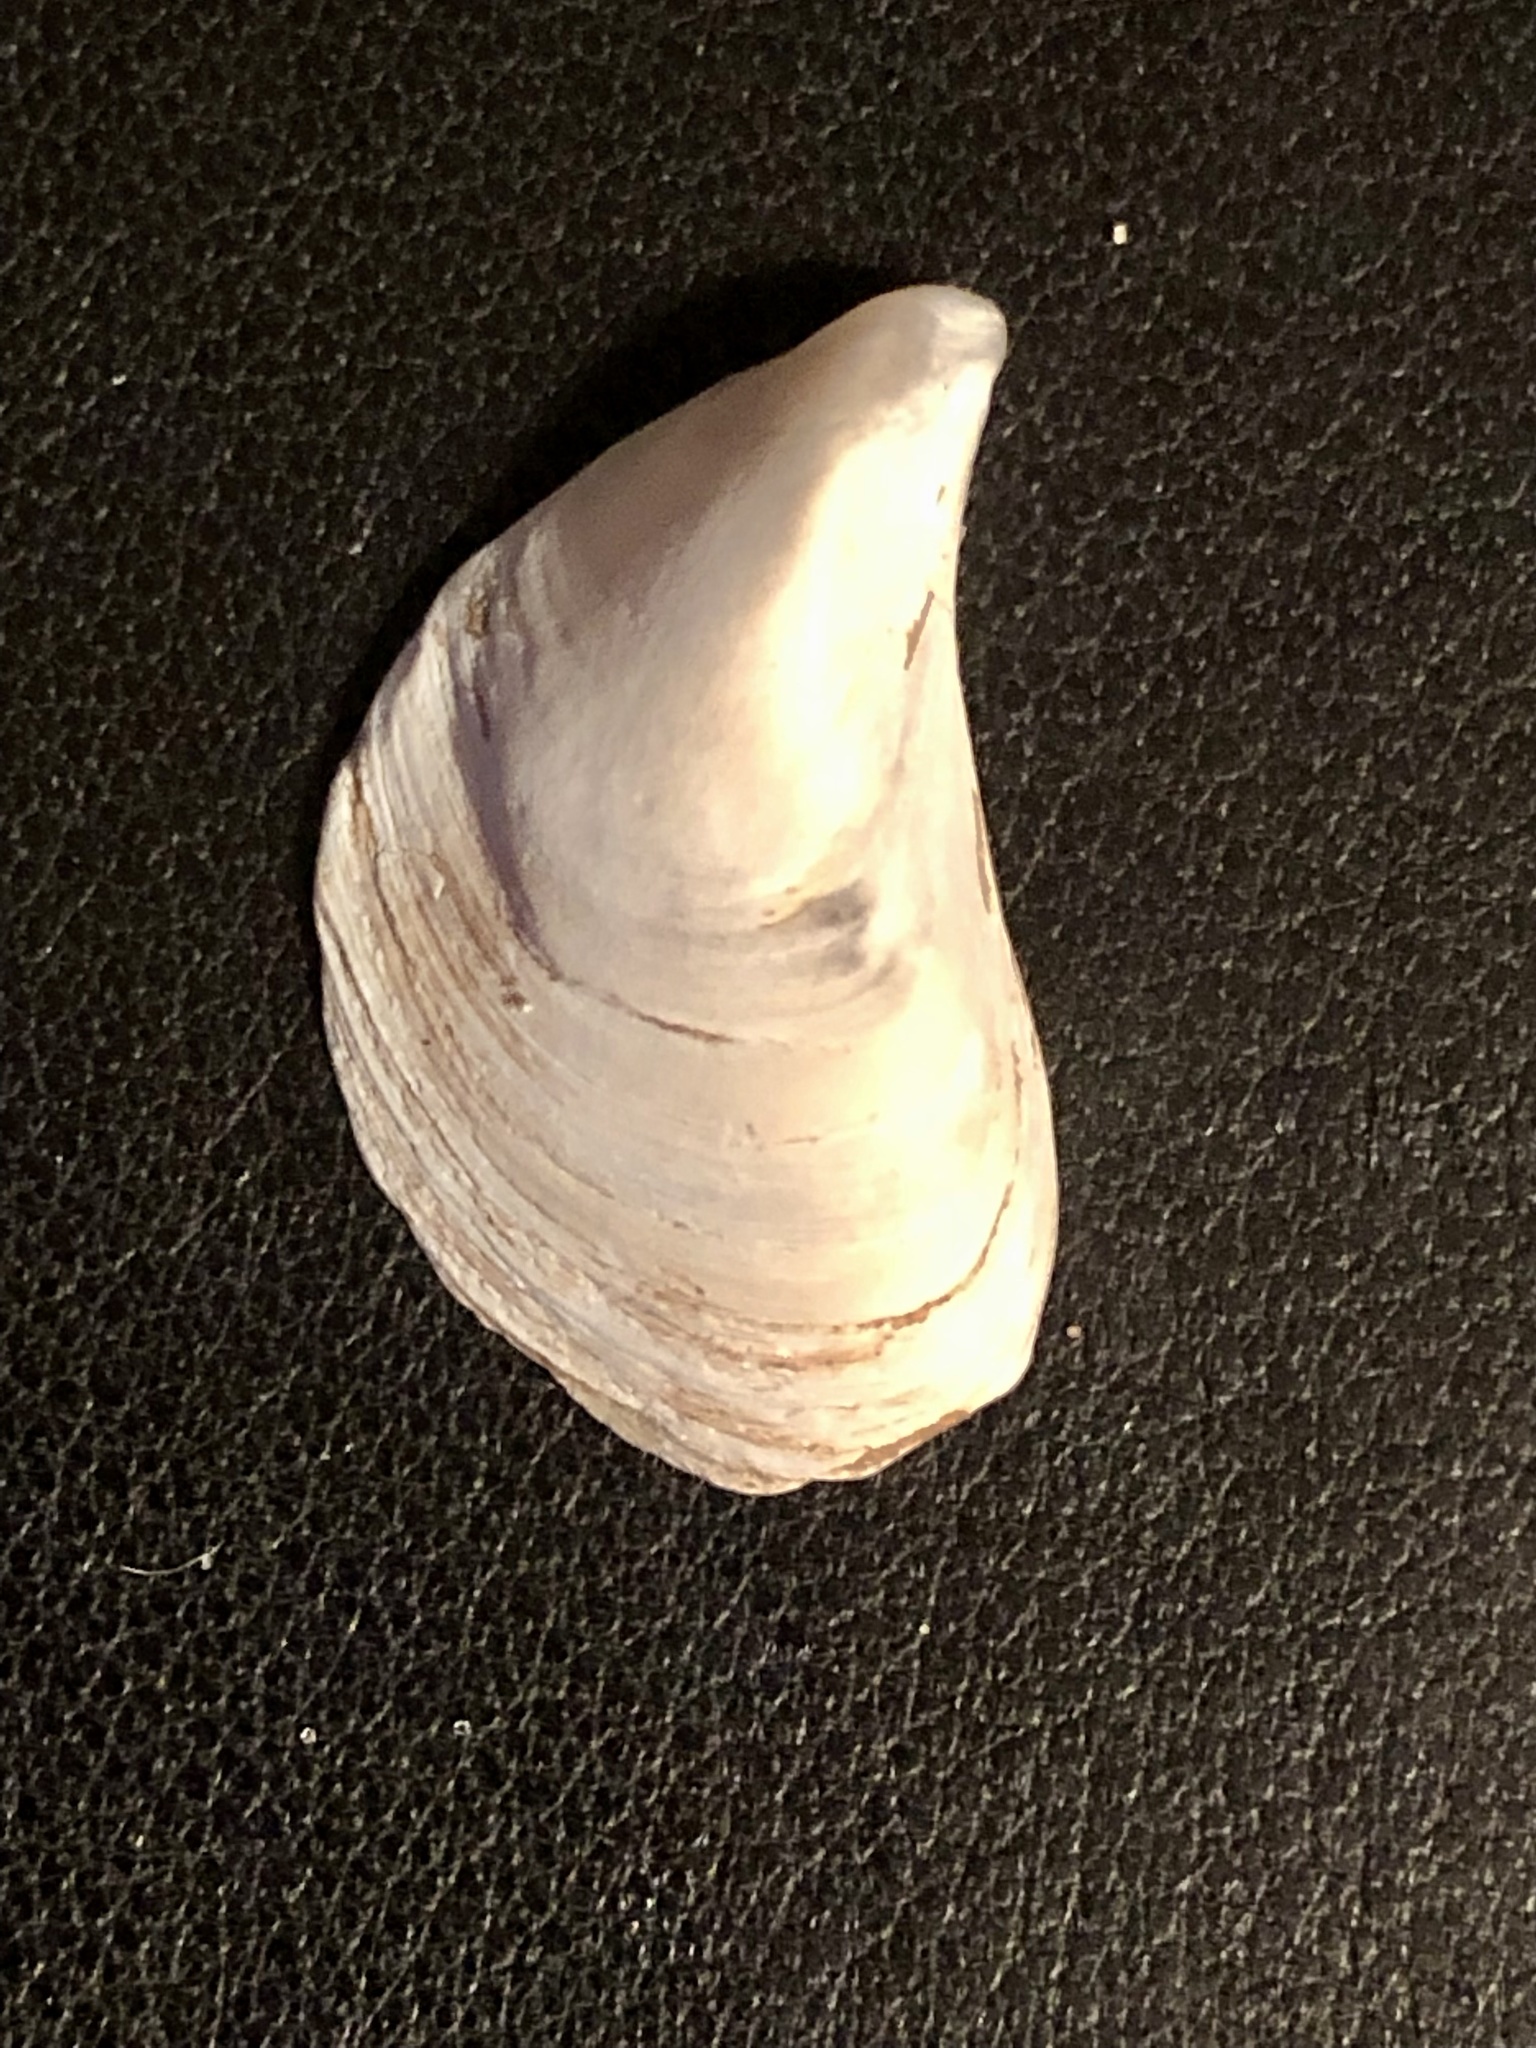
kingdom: Animalia
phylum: Mollusca
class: Bivalvia
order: Myida
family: Dreissenidae
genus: Dreissena
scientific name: Dreissena bugensis
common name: Quagga mussel
